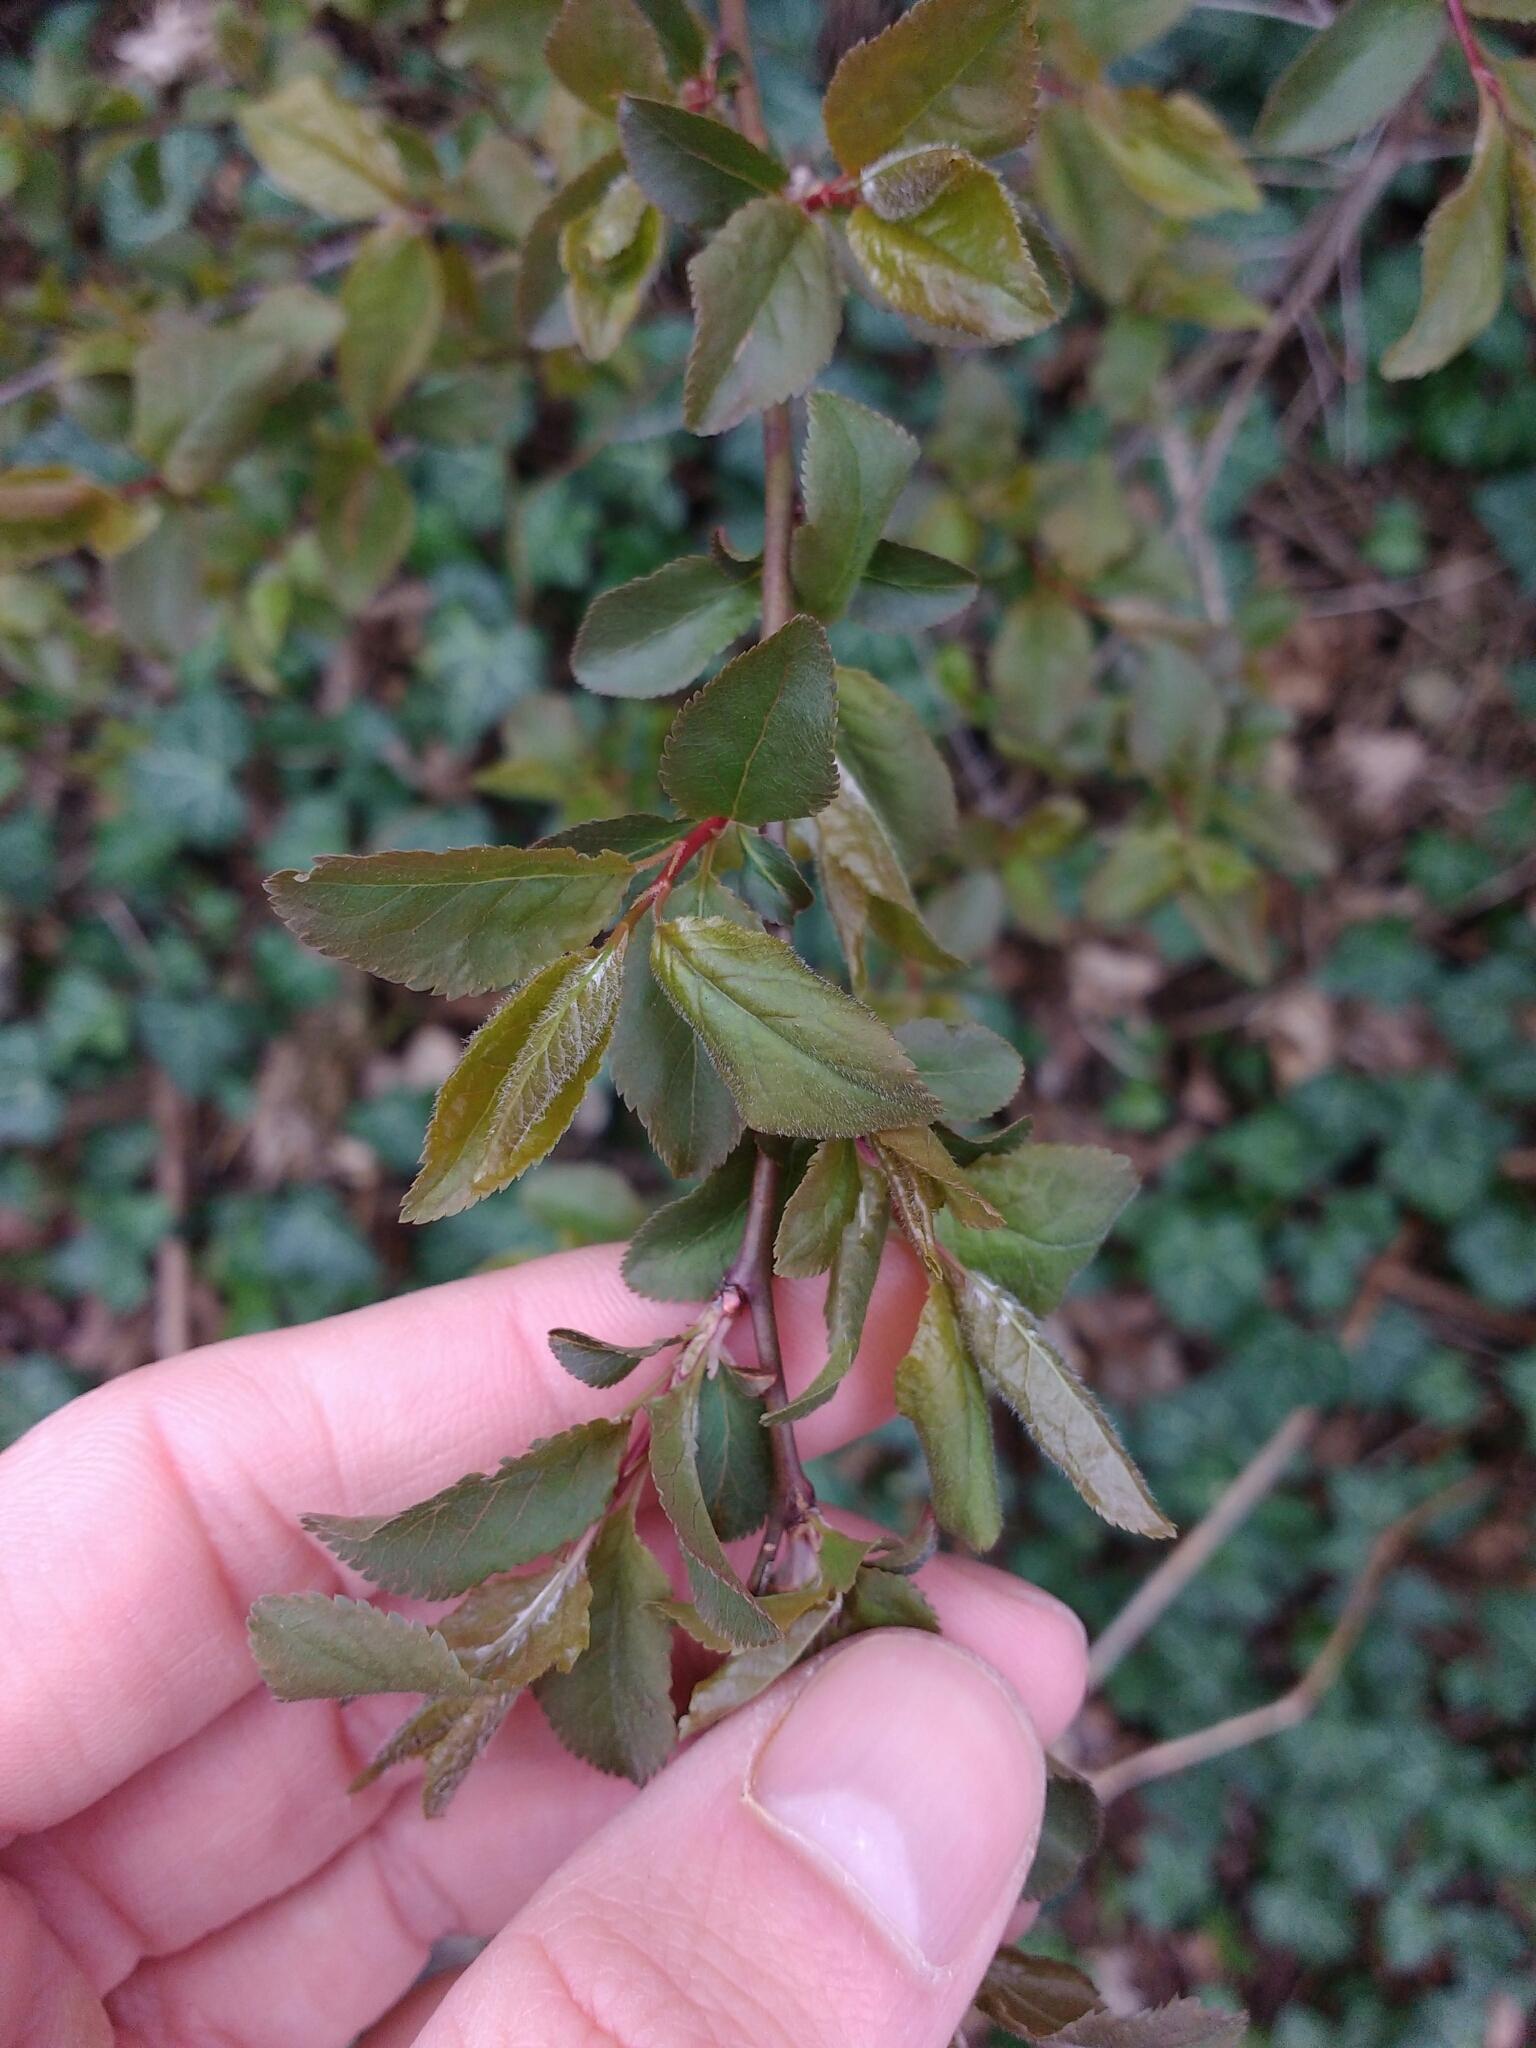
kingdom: Plantae
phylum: Tracheophyta
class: Magnoliopsida
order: Rosales
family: Rosaceae
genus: Prunus
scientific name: Prunus cerasifera
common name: Cherry plum
